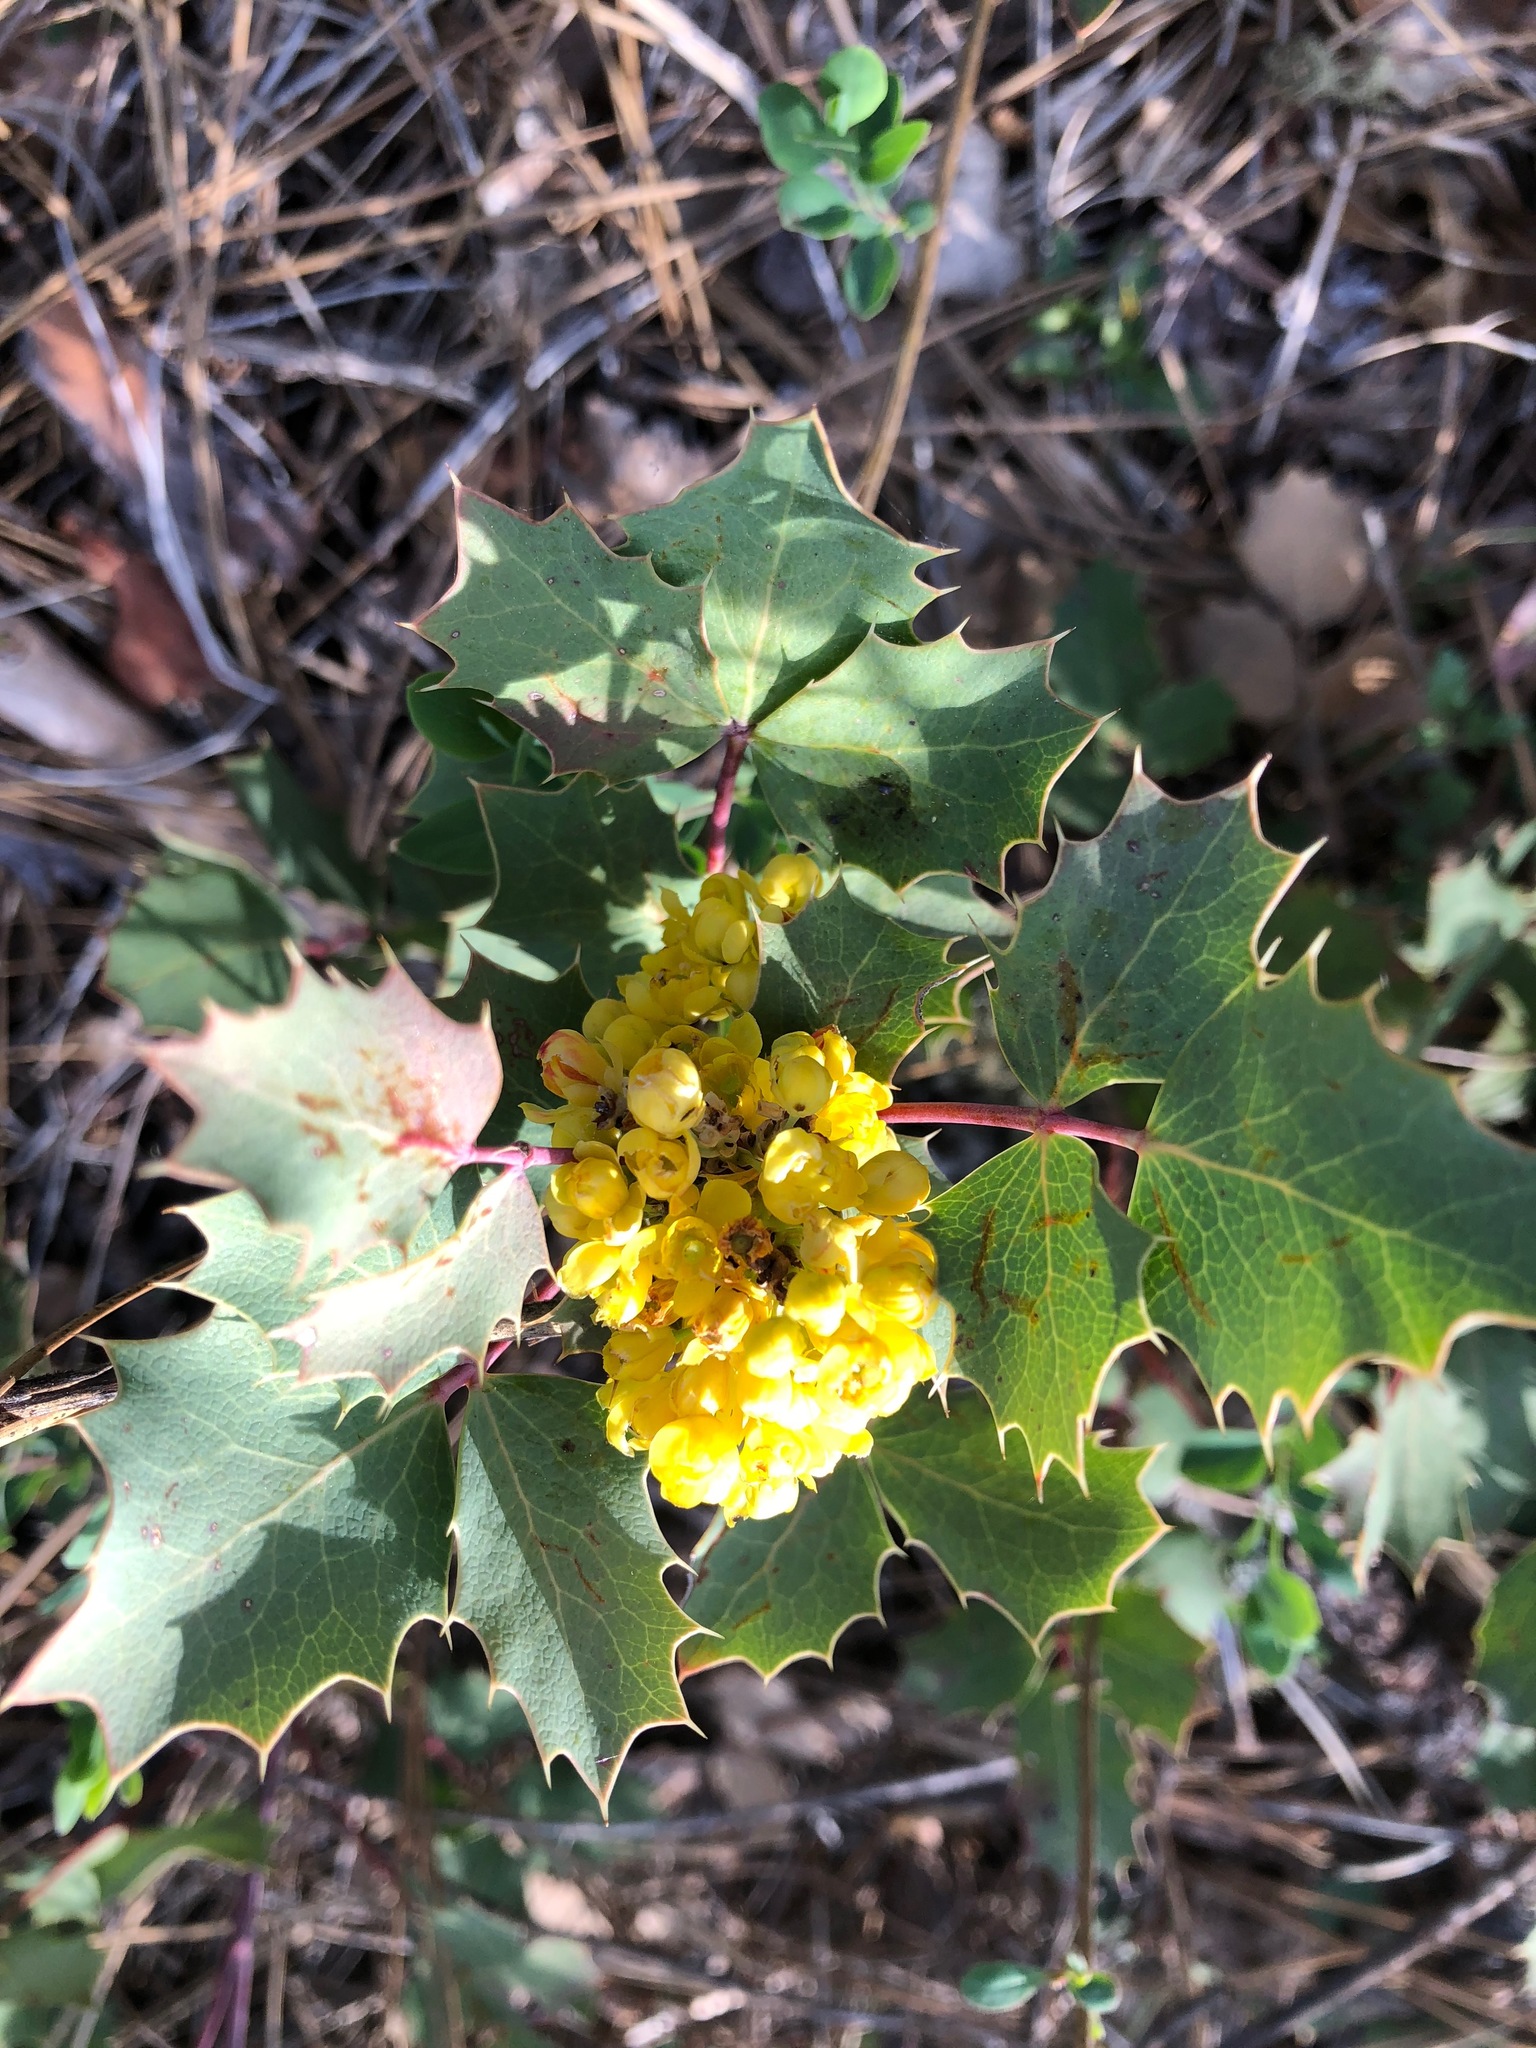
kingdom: Plantae
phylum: Tracheophyta
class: Magnoliopsida
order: Ranunculales
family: Berberidaceae
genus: Mahonia
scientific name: Mahonia dictyota
